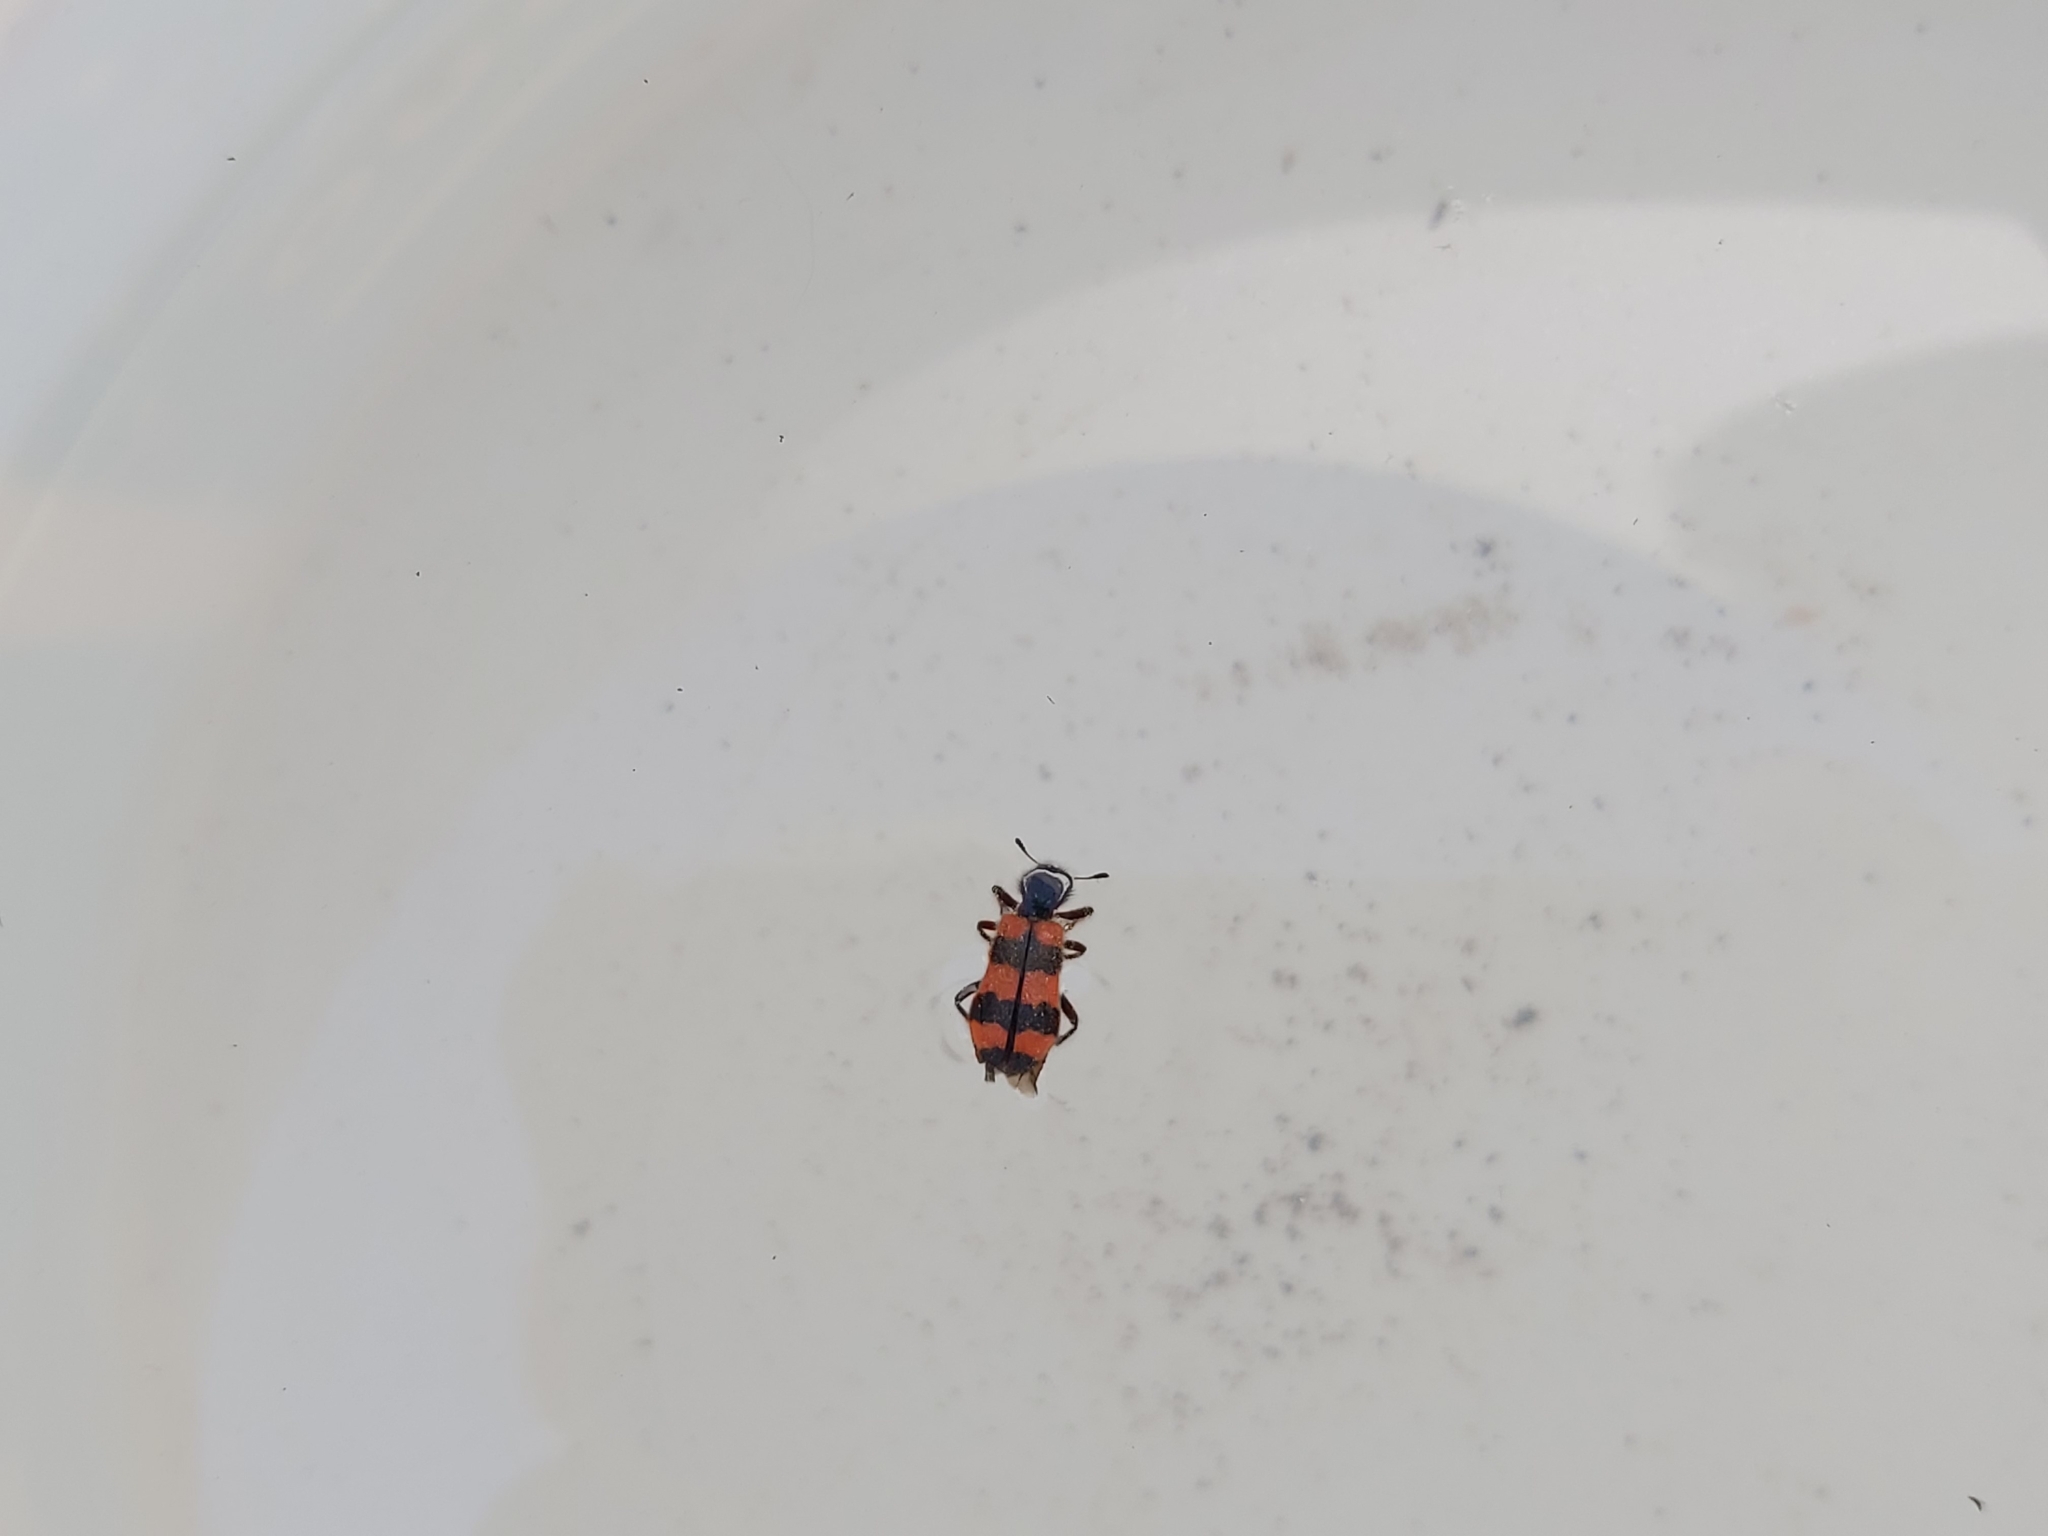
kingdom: Animalia
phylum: Arthropoda
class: Insecta
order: Coleoptera
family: Cleridae
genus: Trichodes
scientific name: Trichodes apiarius
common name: Bee-eating beetle
